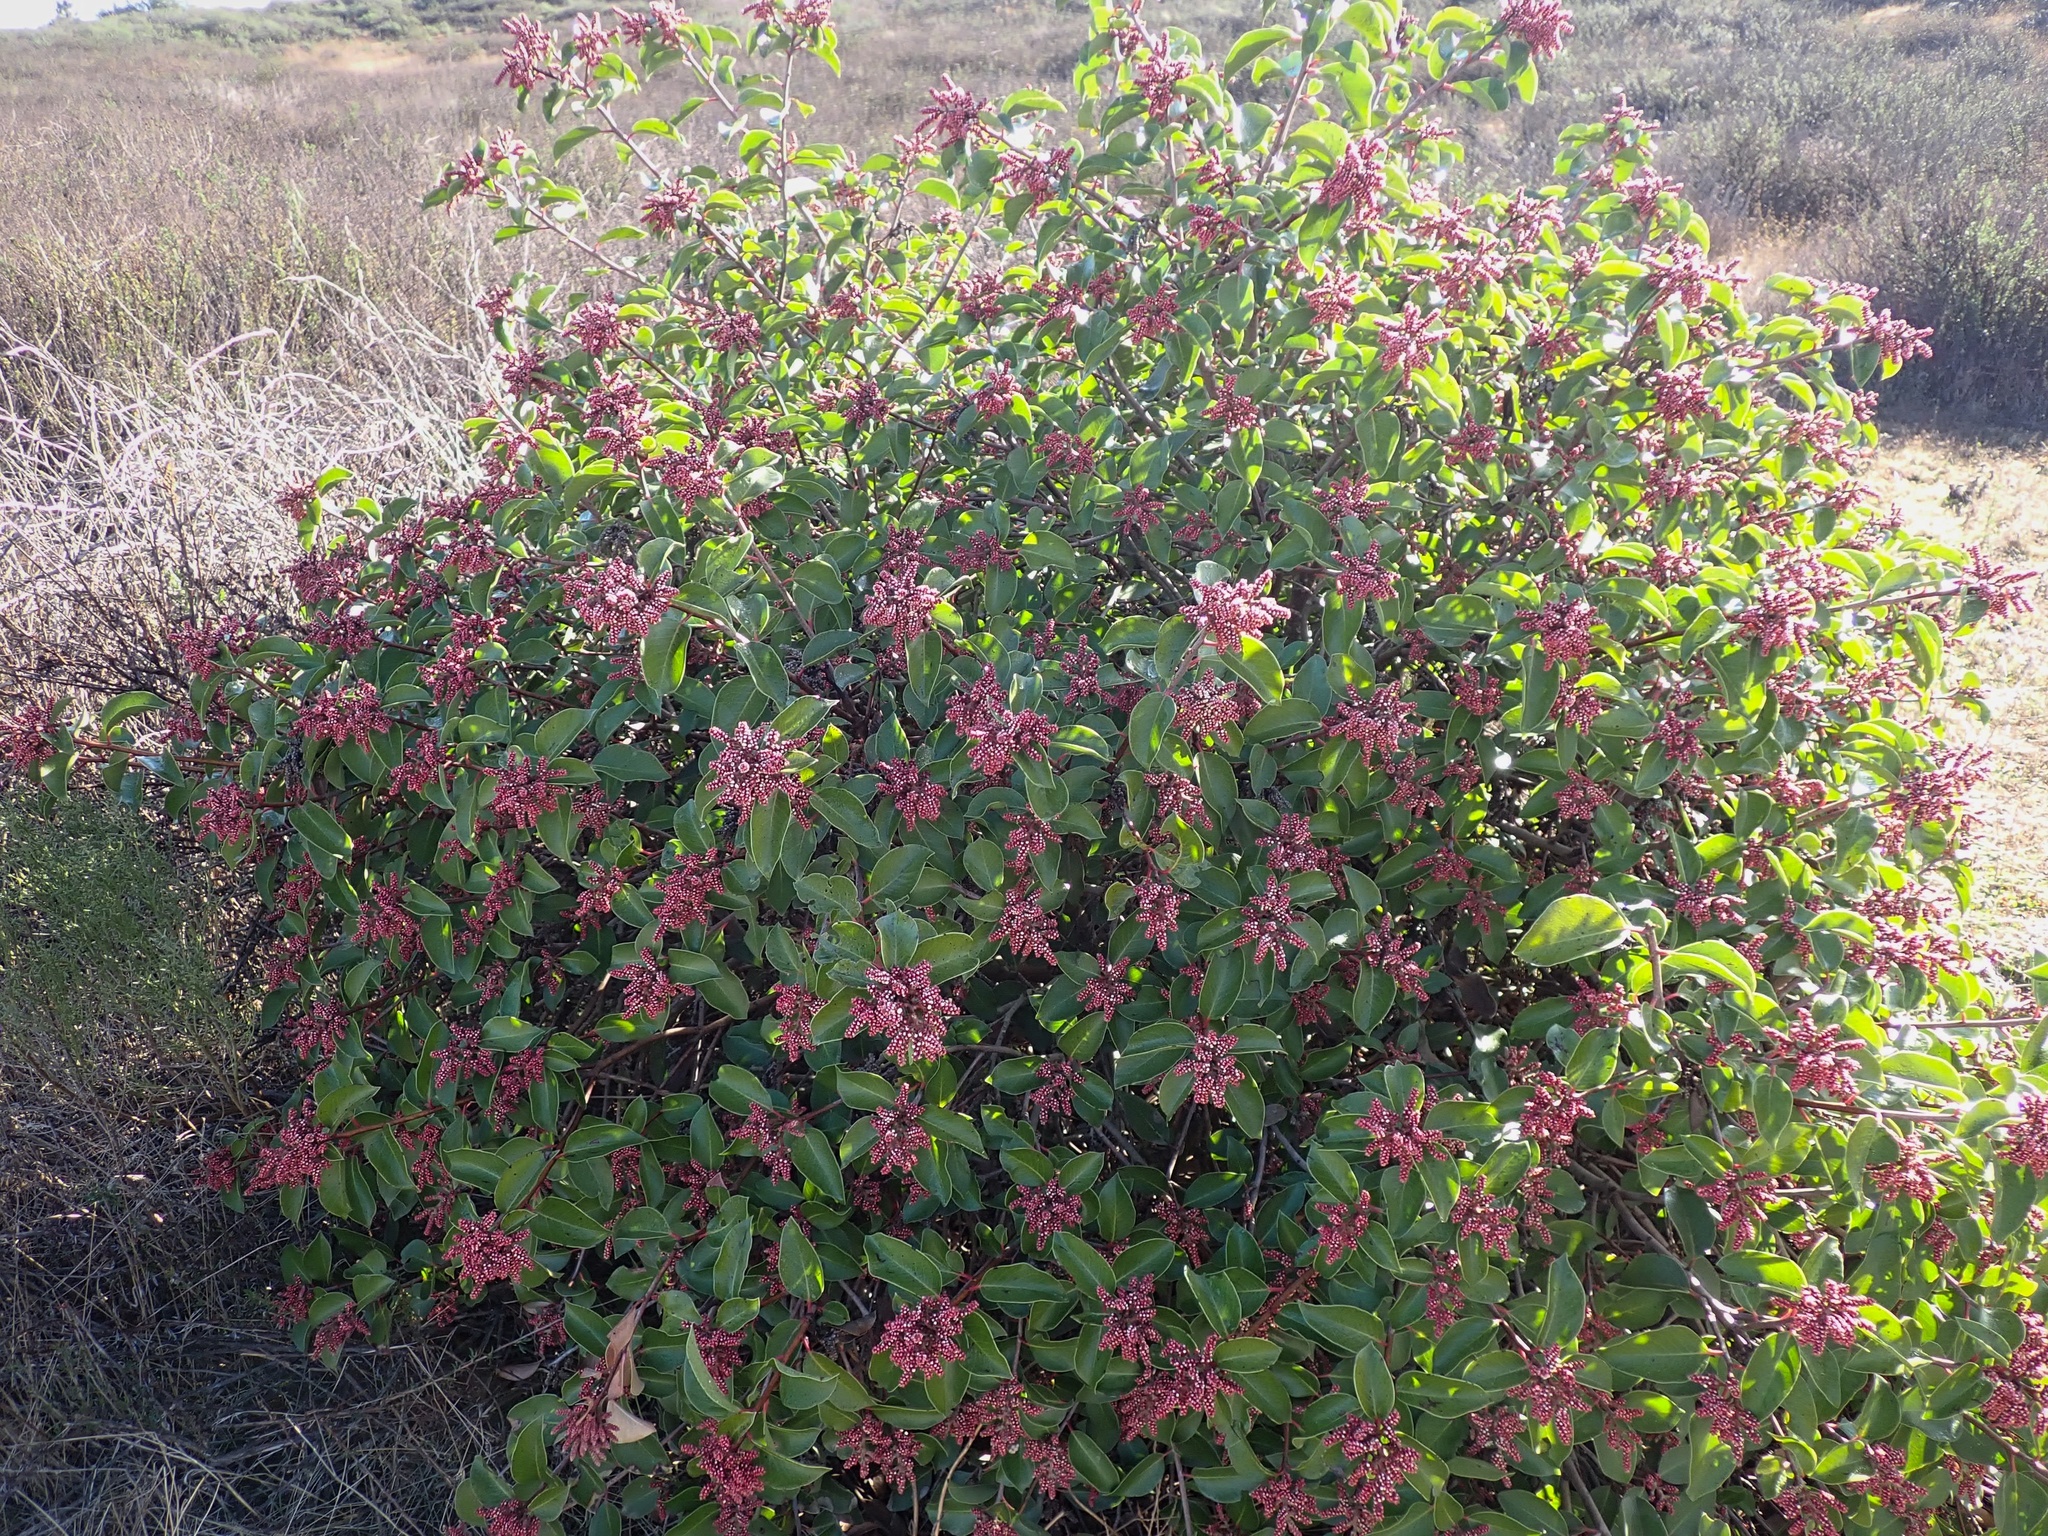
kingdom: Plantae
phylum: Tracheophyta
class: Magnoliopsida
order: Sapindales
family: Anacardiaceae
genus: Rhus
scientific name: Rhus ovata
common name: Sugar sumac
